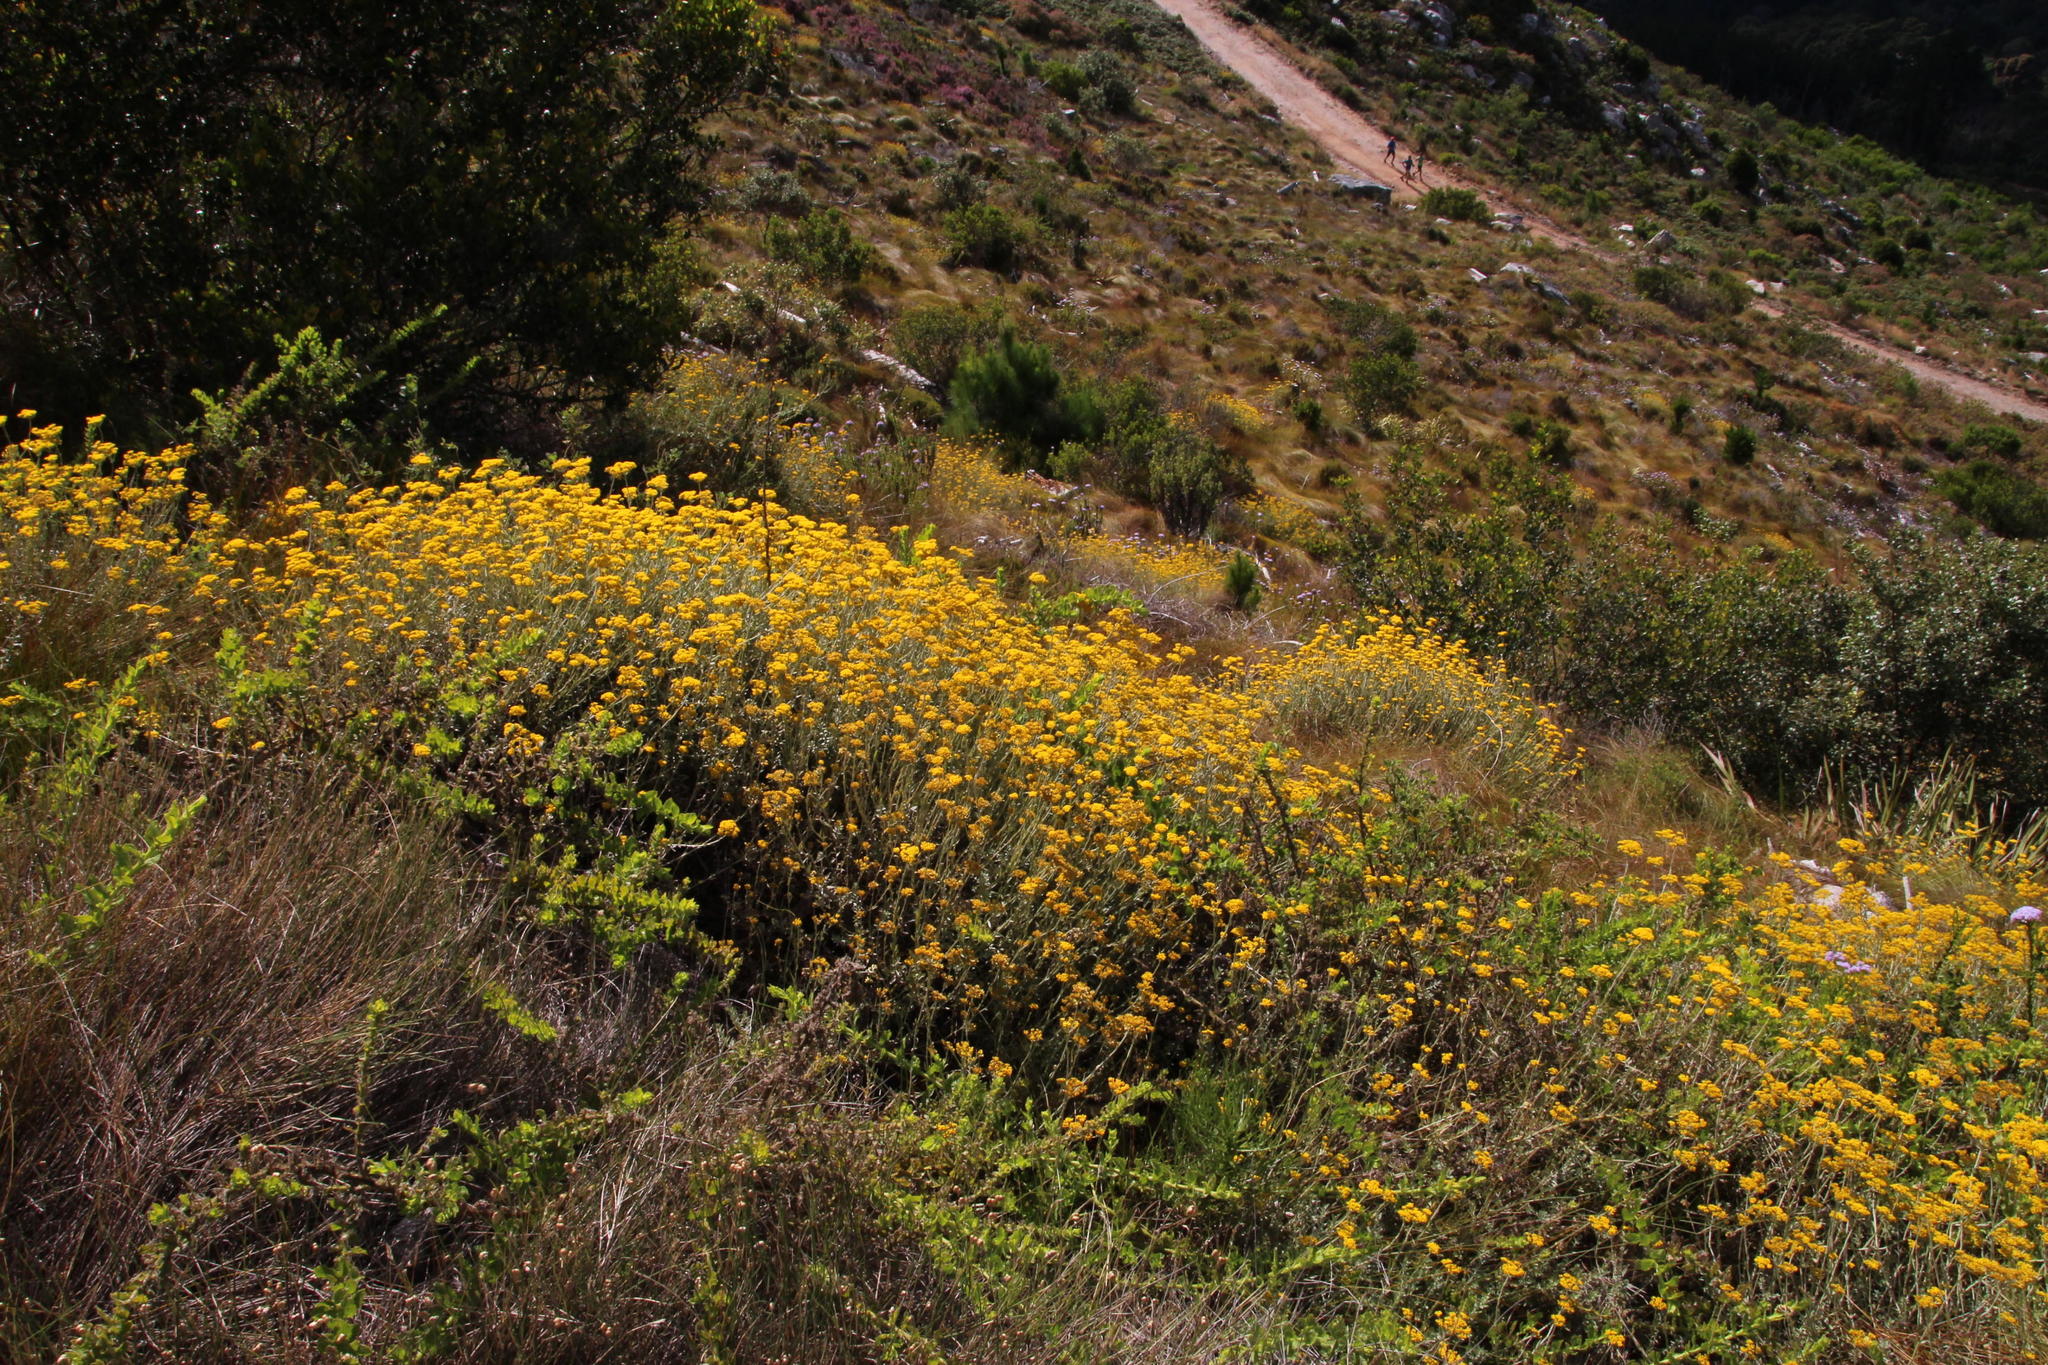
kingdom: Plantae
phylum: Tracheophyta
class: Magnoliopsida
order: Asterales
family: Asteraceae
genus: Helichrysum
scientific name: Helichrysum dasyanthum
